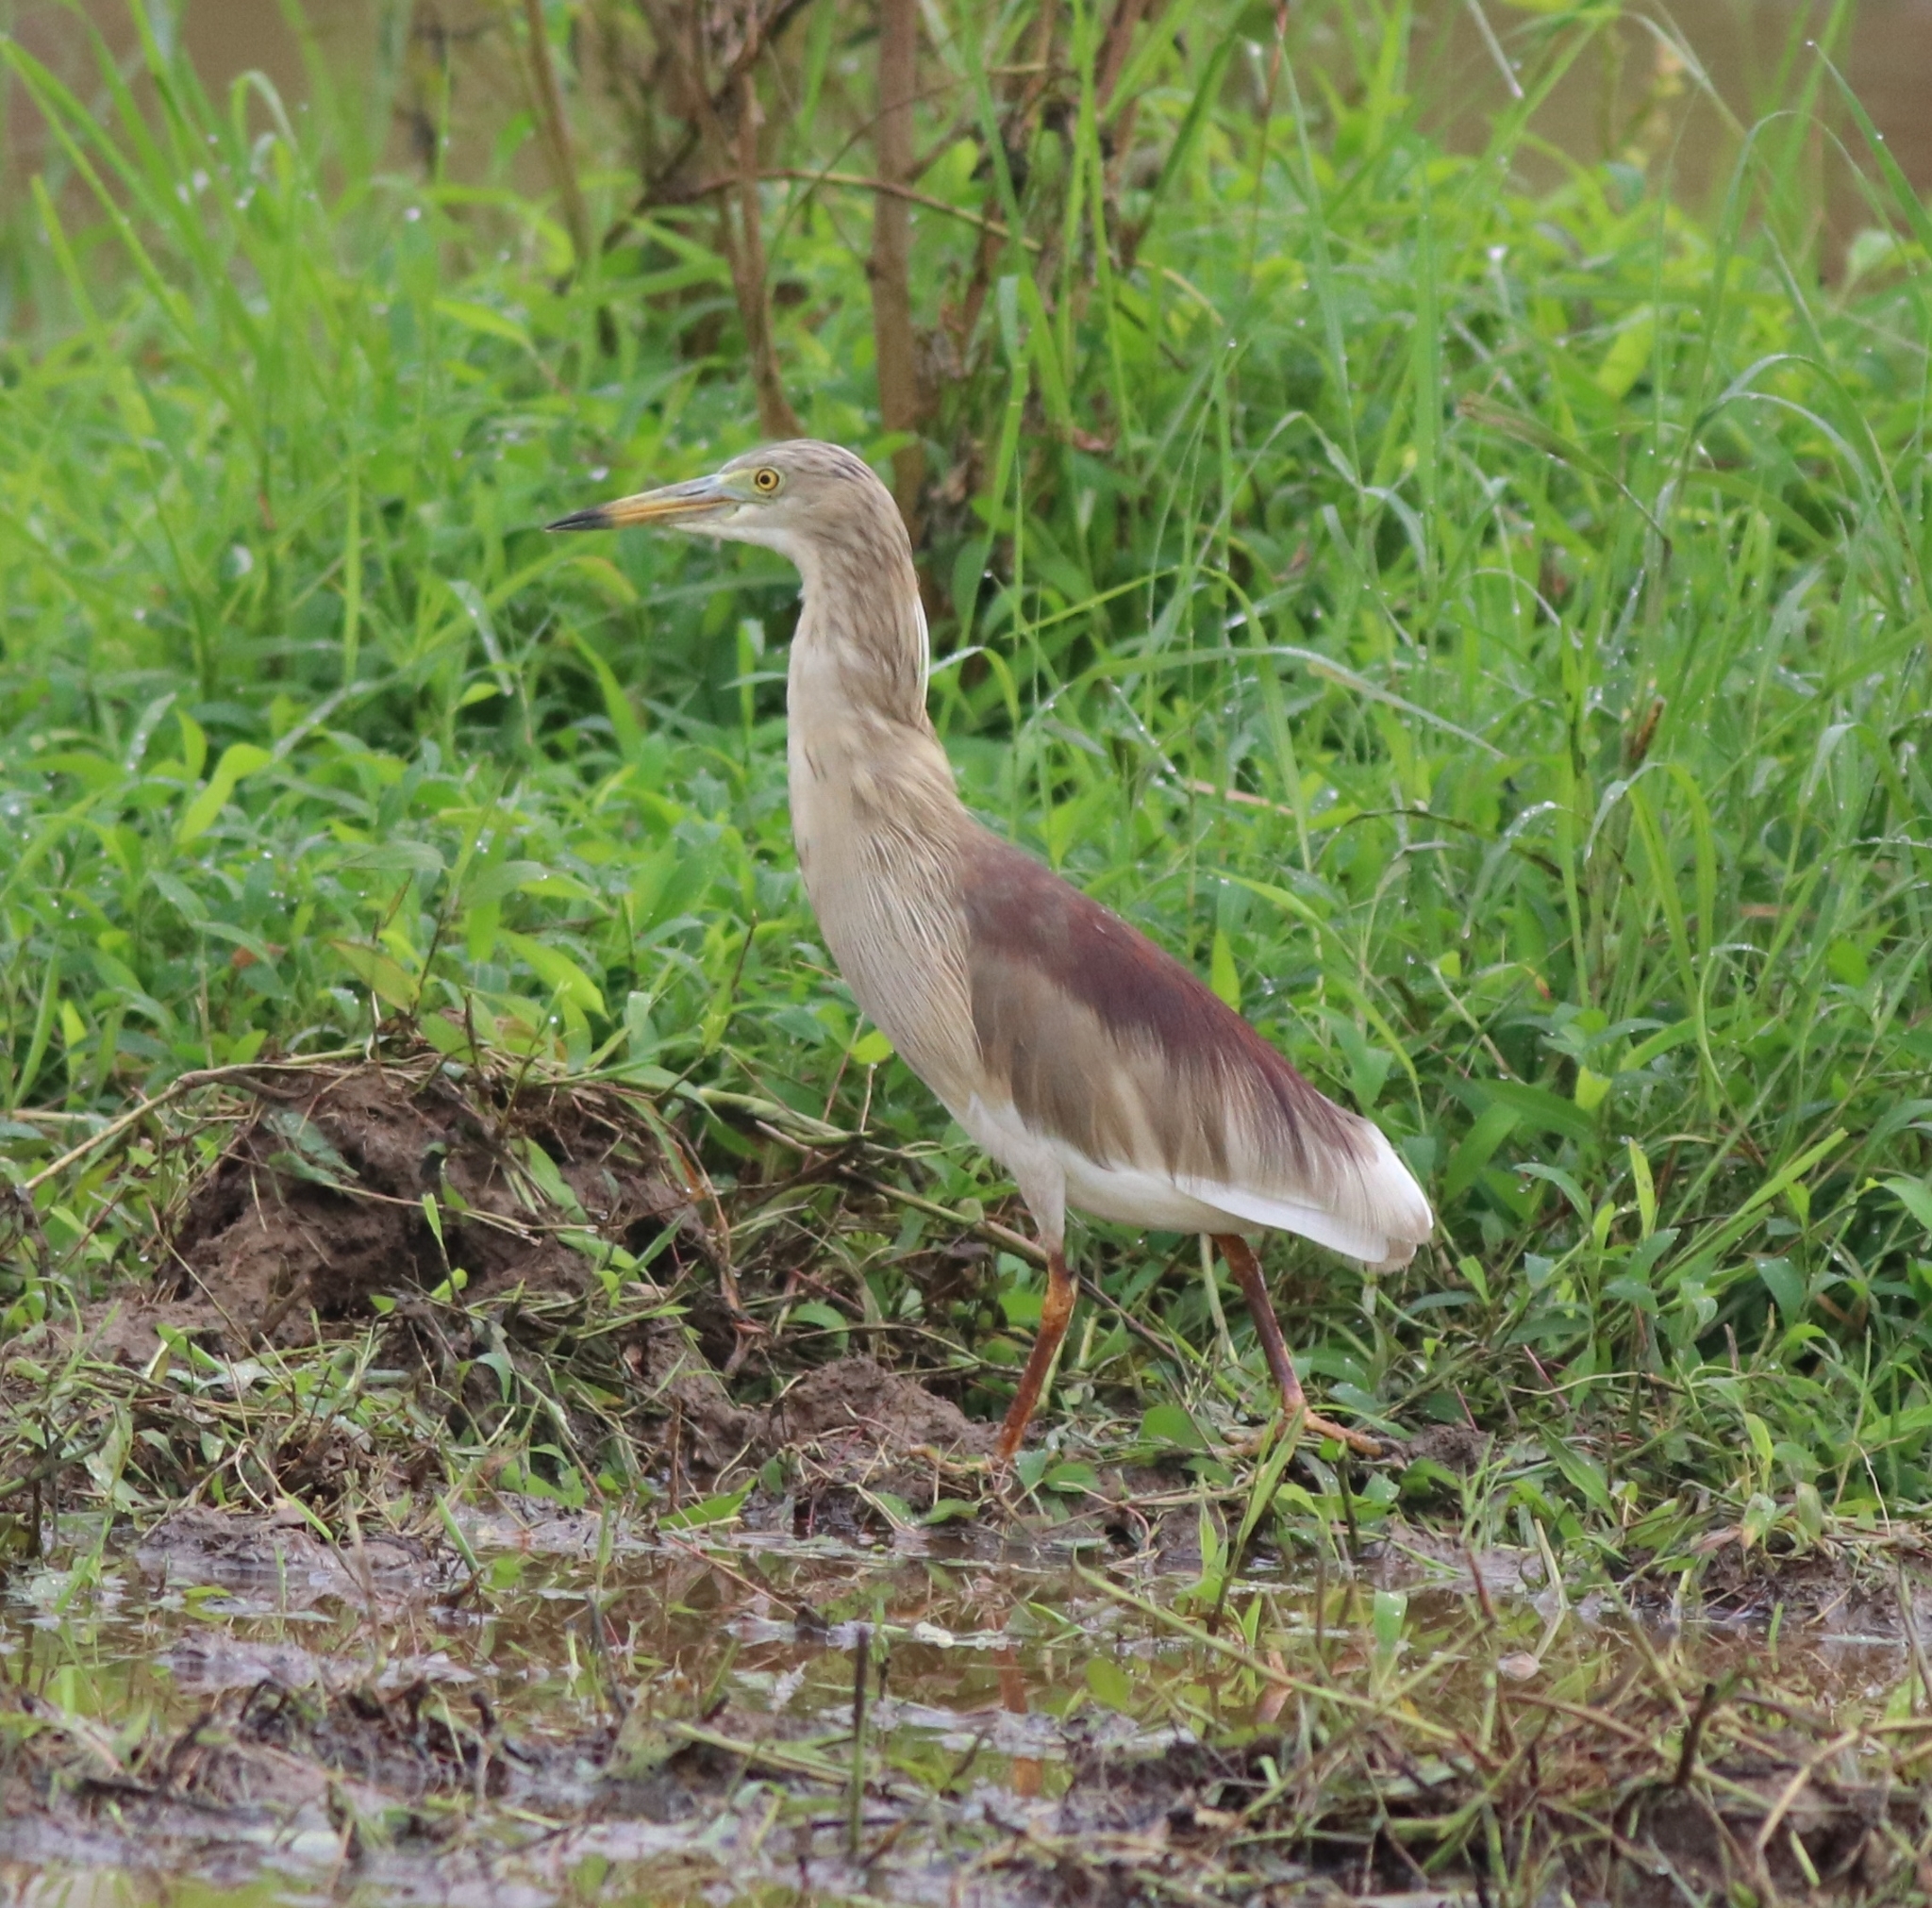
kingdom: Animalia
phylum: Chordata
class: Aves
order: Pelecaniformes
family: Ardeidae
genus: Ardeola
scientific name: Ardeola grayii
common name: Indian pond heron
